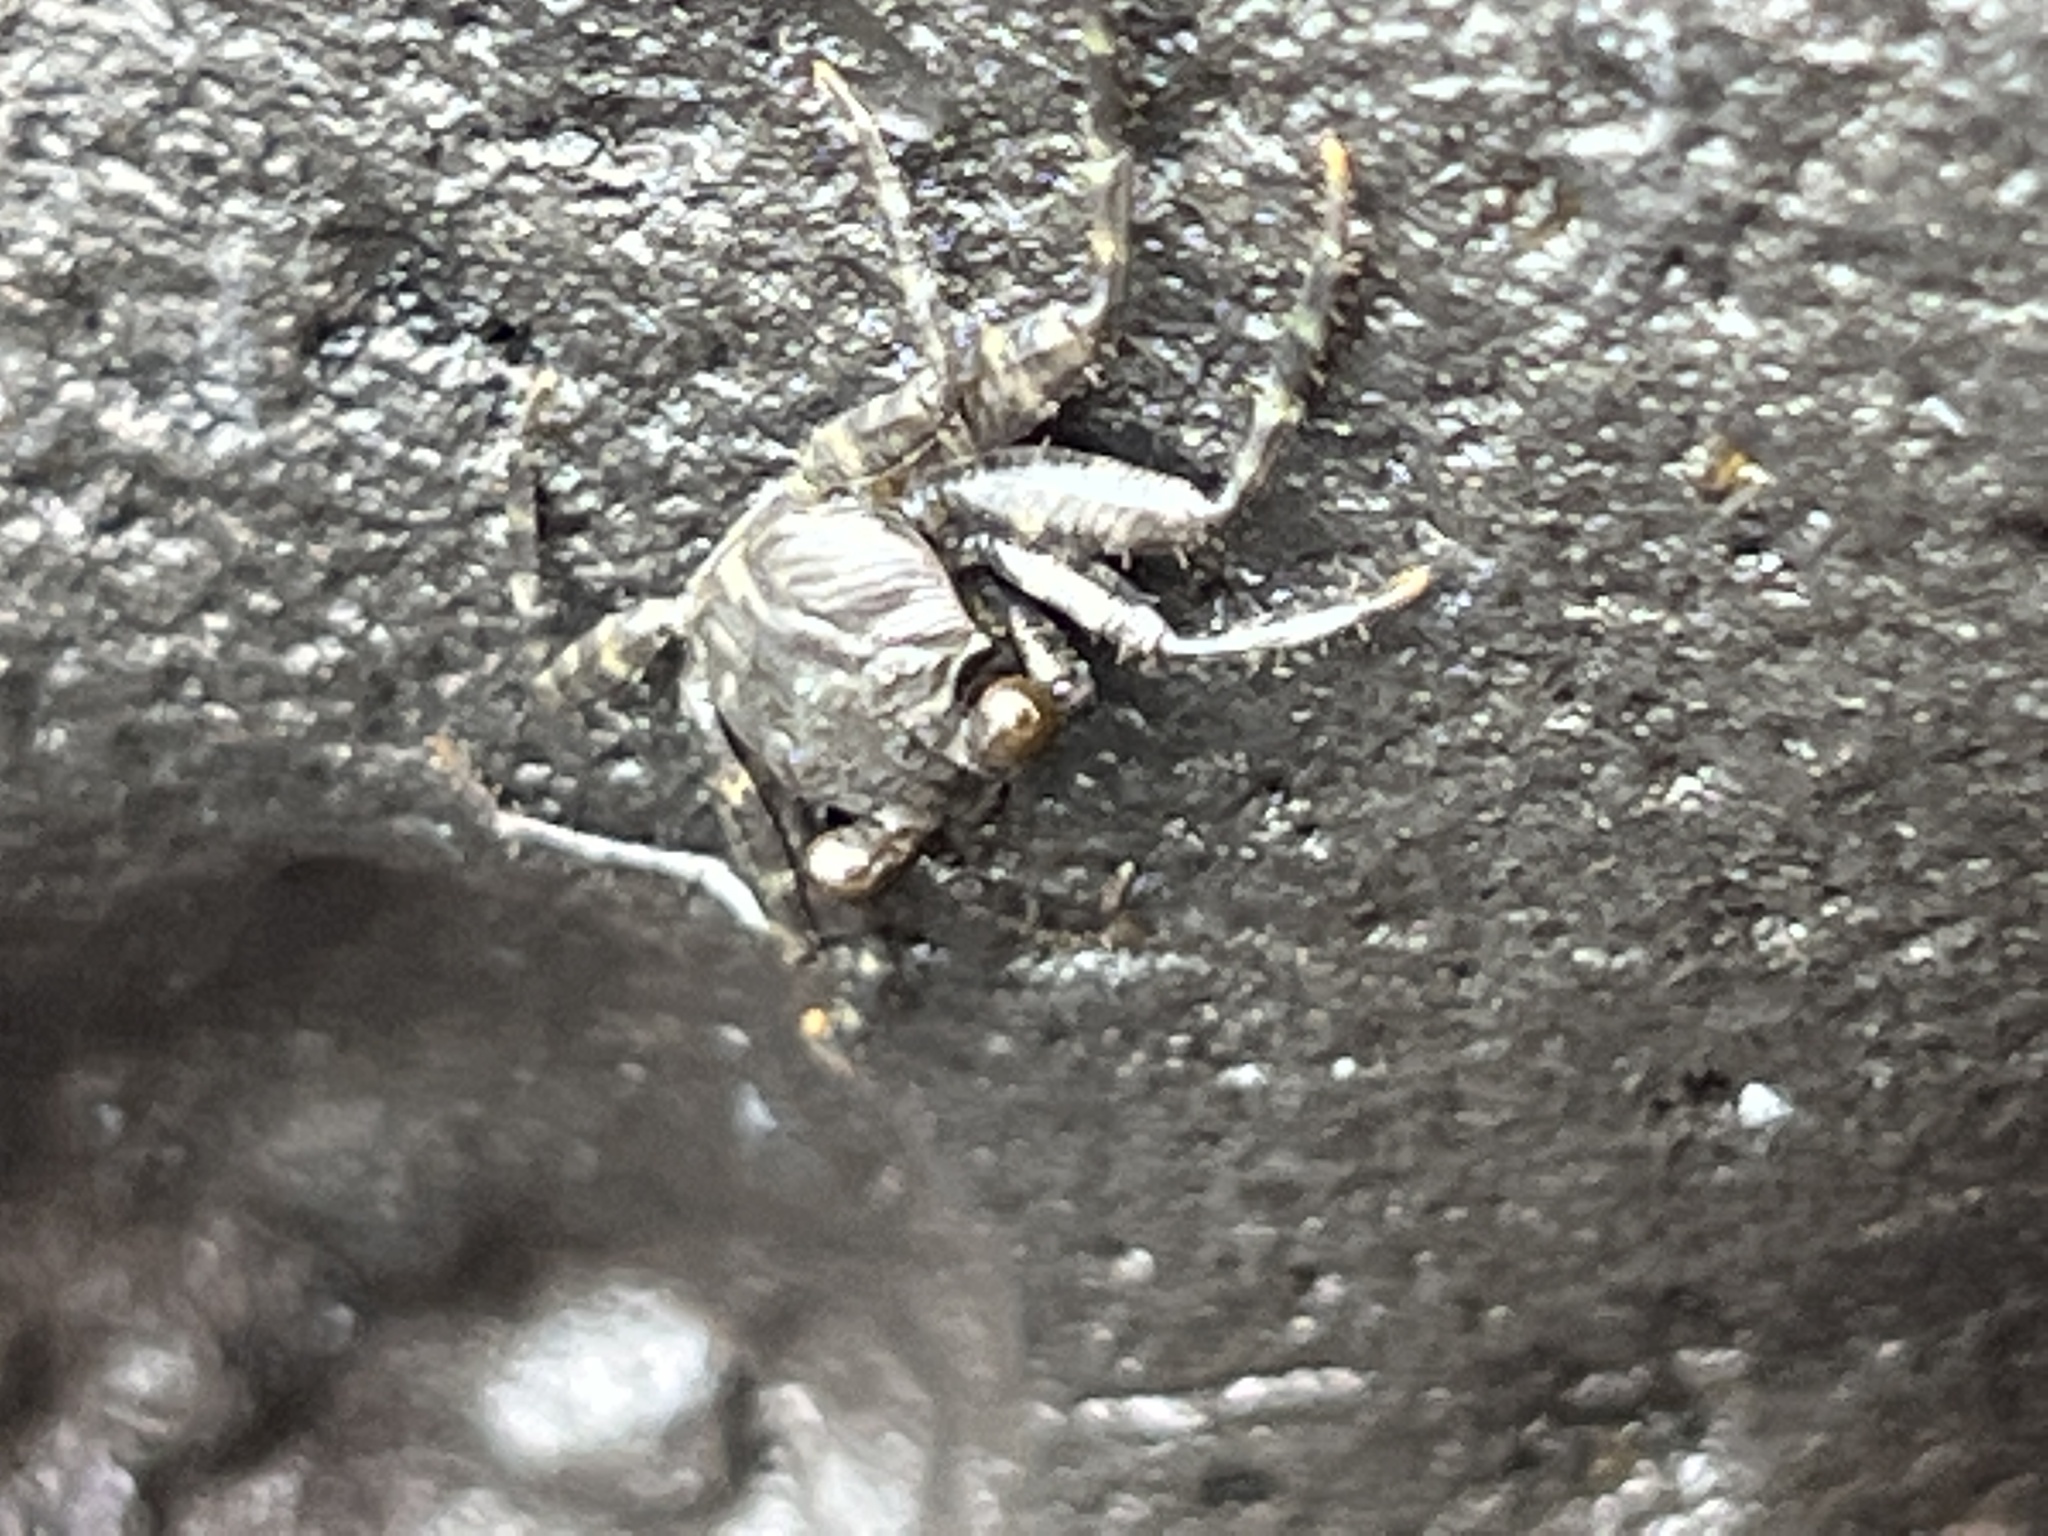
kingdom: Animalia
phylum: Arthropoda
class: Malacostraca
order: Decapoda
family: Grapsidae
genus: Grapsus
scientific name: Grapsus tenuicrustatus
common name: Natal lightfoot crab
